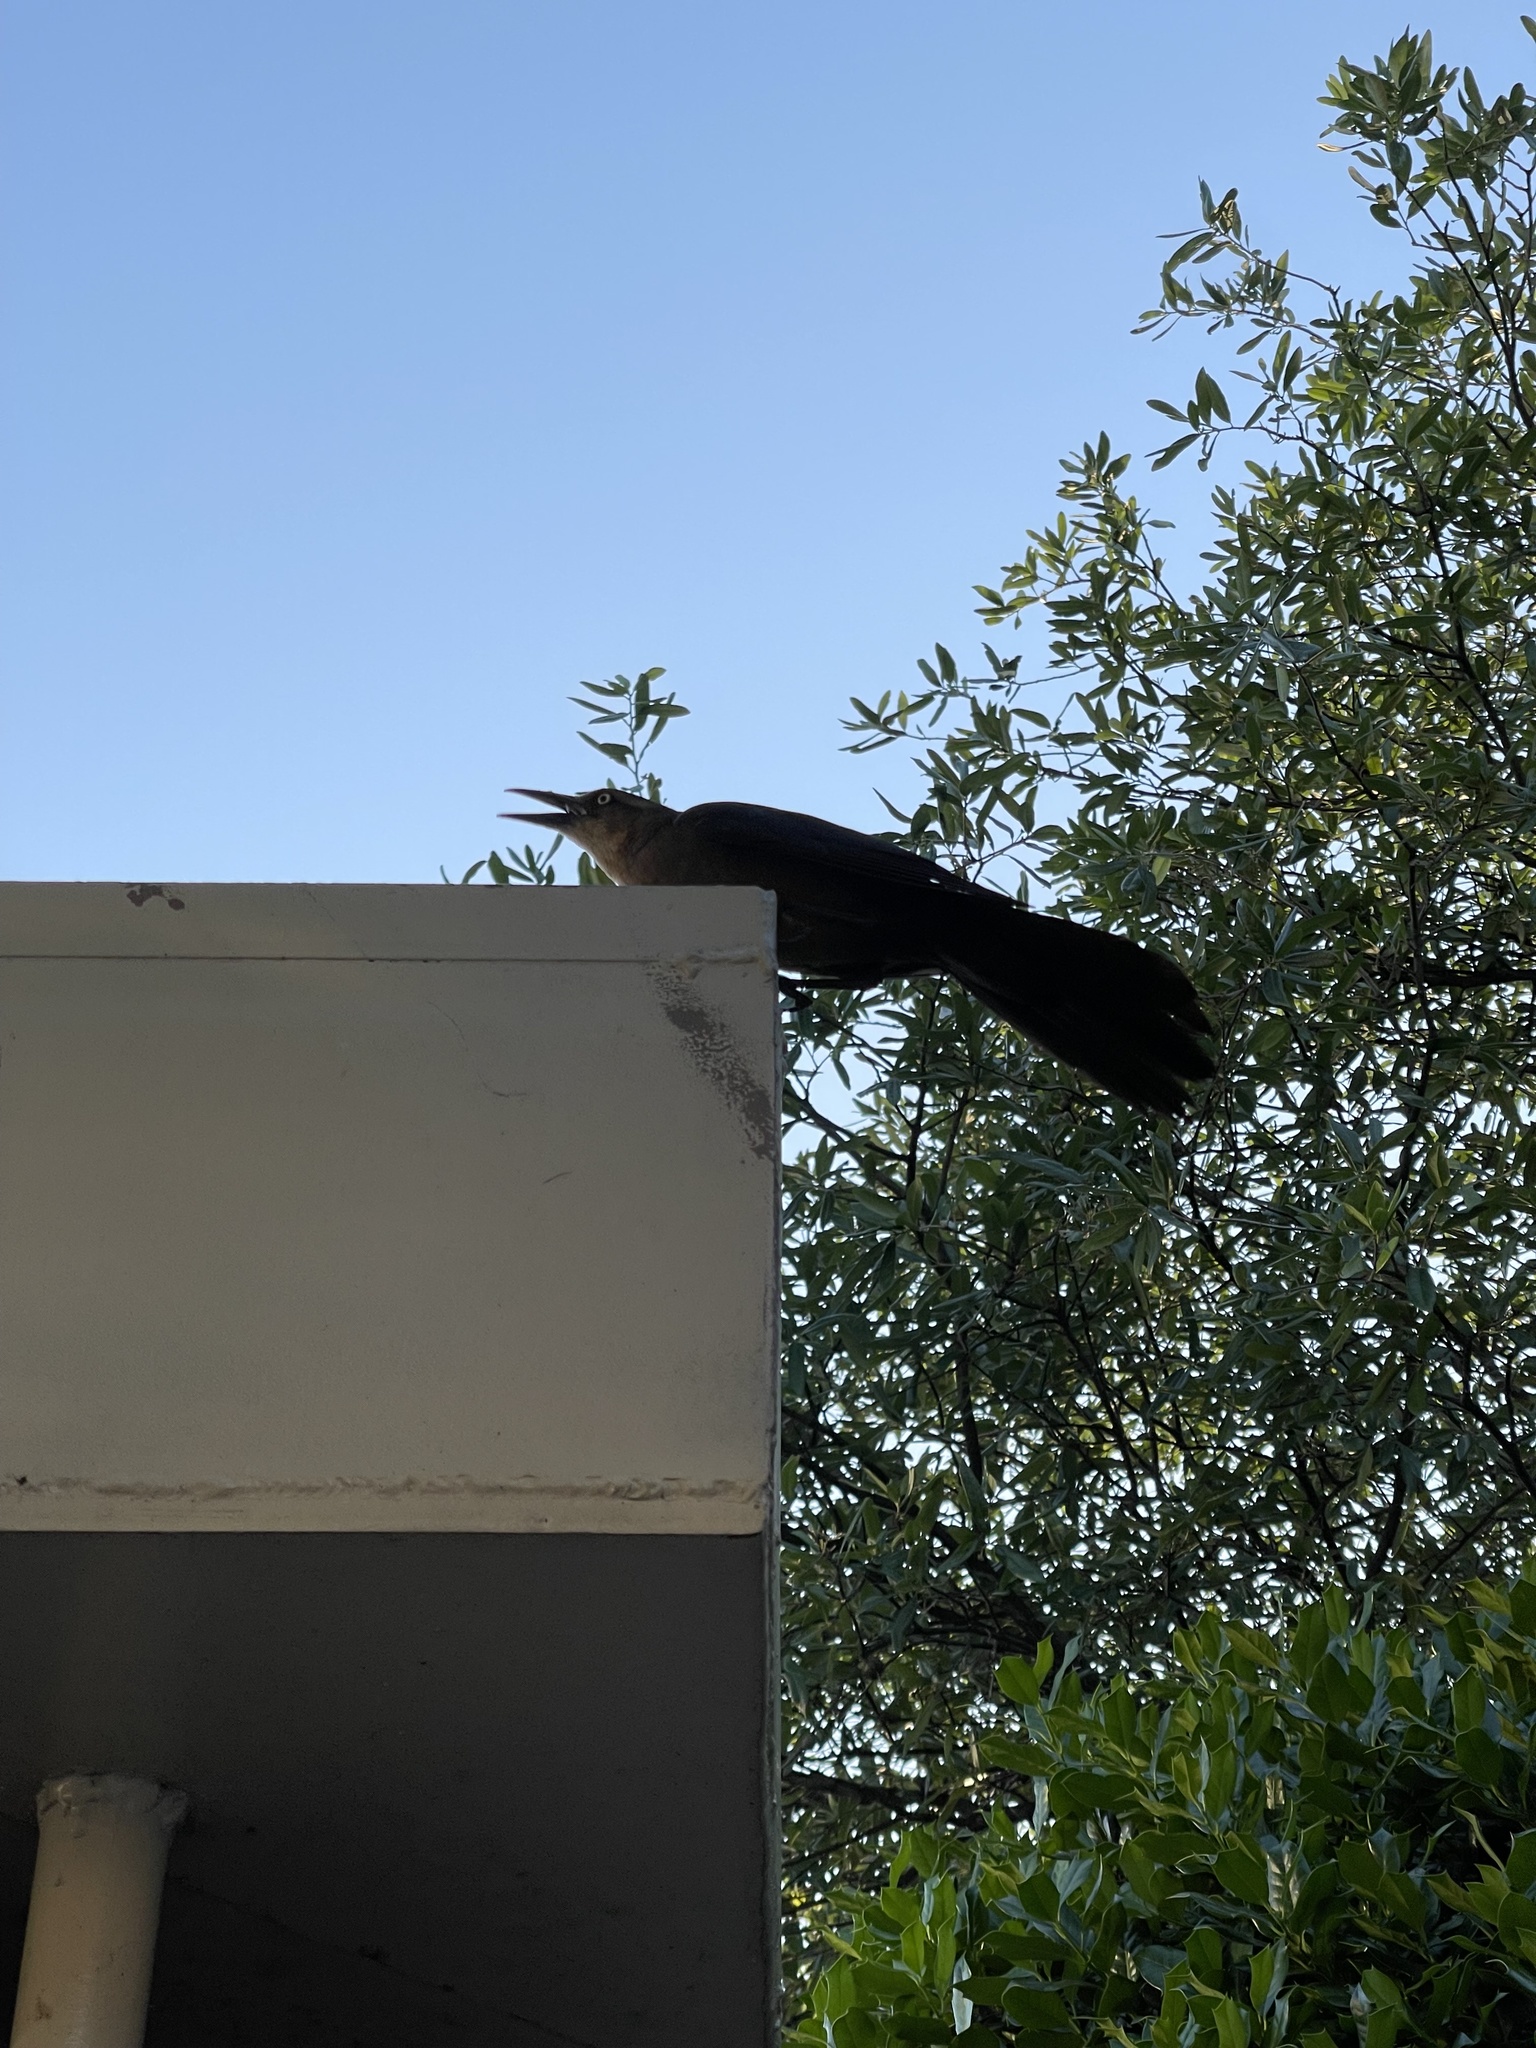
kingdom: Animalia
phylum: Chordata
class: Aves
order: Passeriformes
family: Icteridae
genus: Quiscalus
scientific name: Quiscalus mexicanus
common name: Great-tailed grackle
